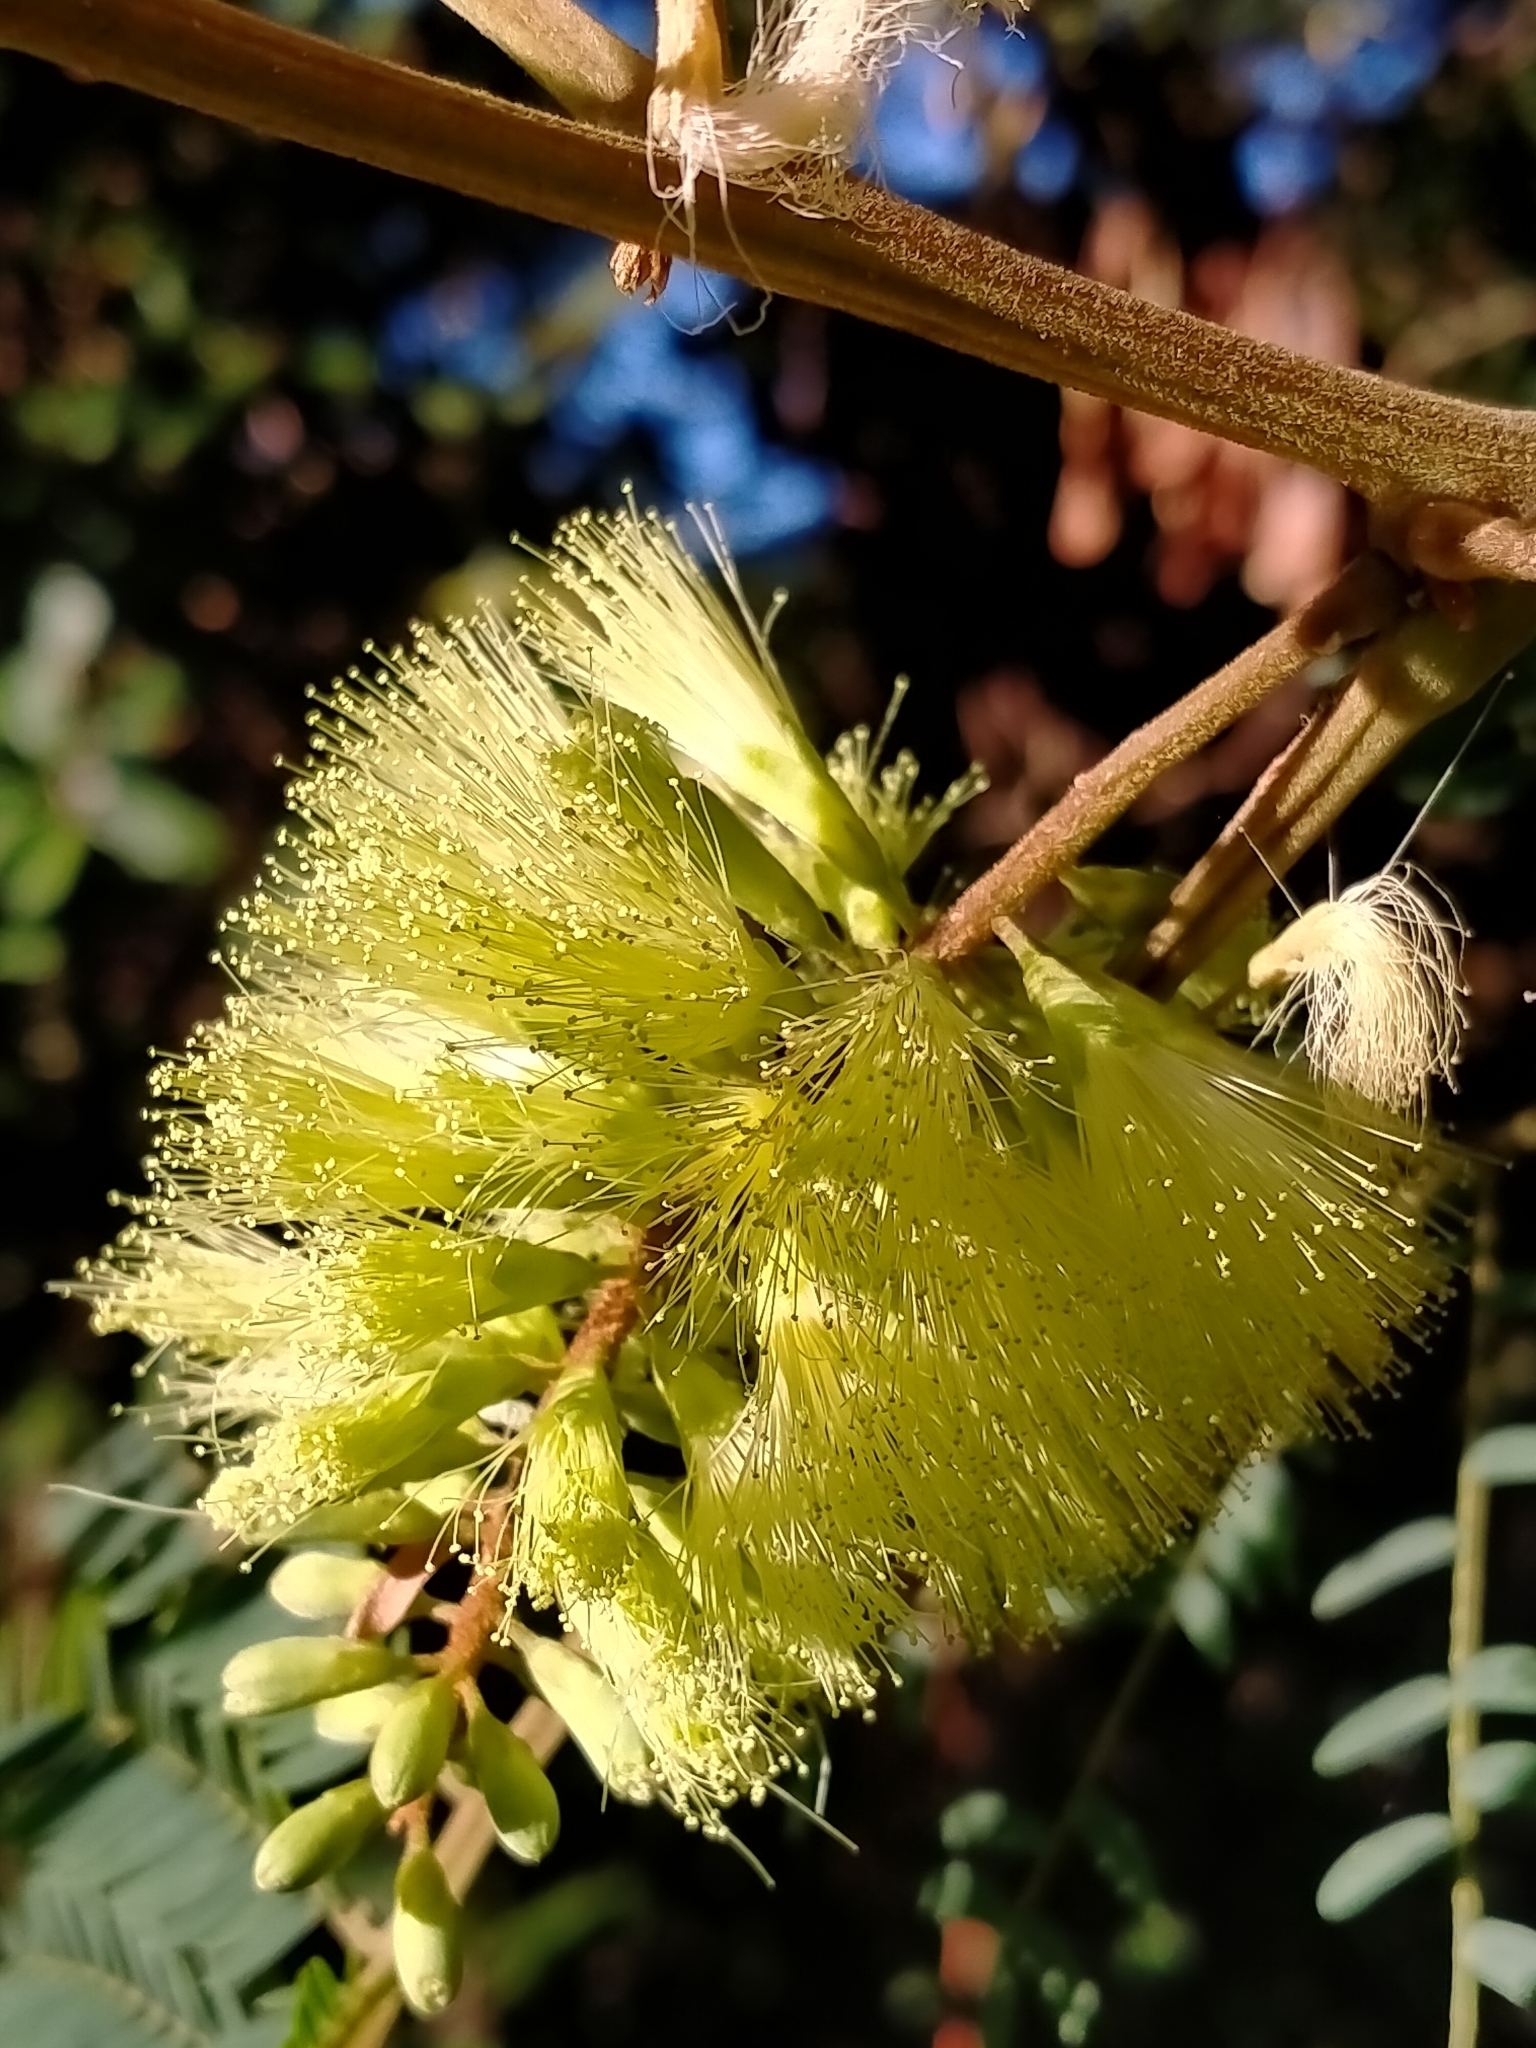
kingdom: Plantae
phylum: Tracheophyta
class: Magnoliopsida
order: Fabales
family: Fabaceae
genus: Paraserianthes
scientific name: Paraserianthes lophantha
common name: Plume albizia
